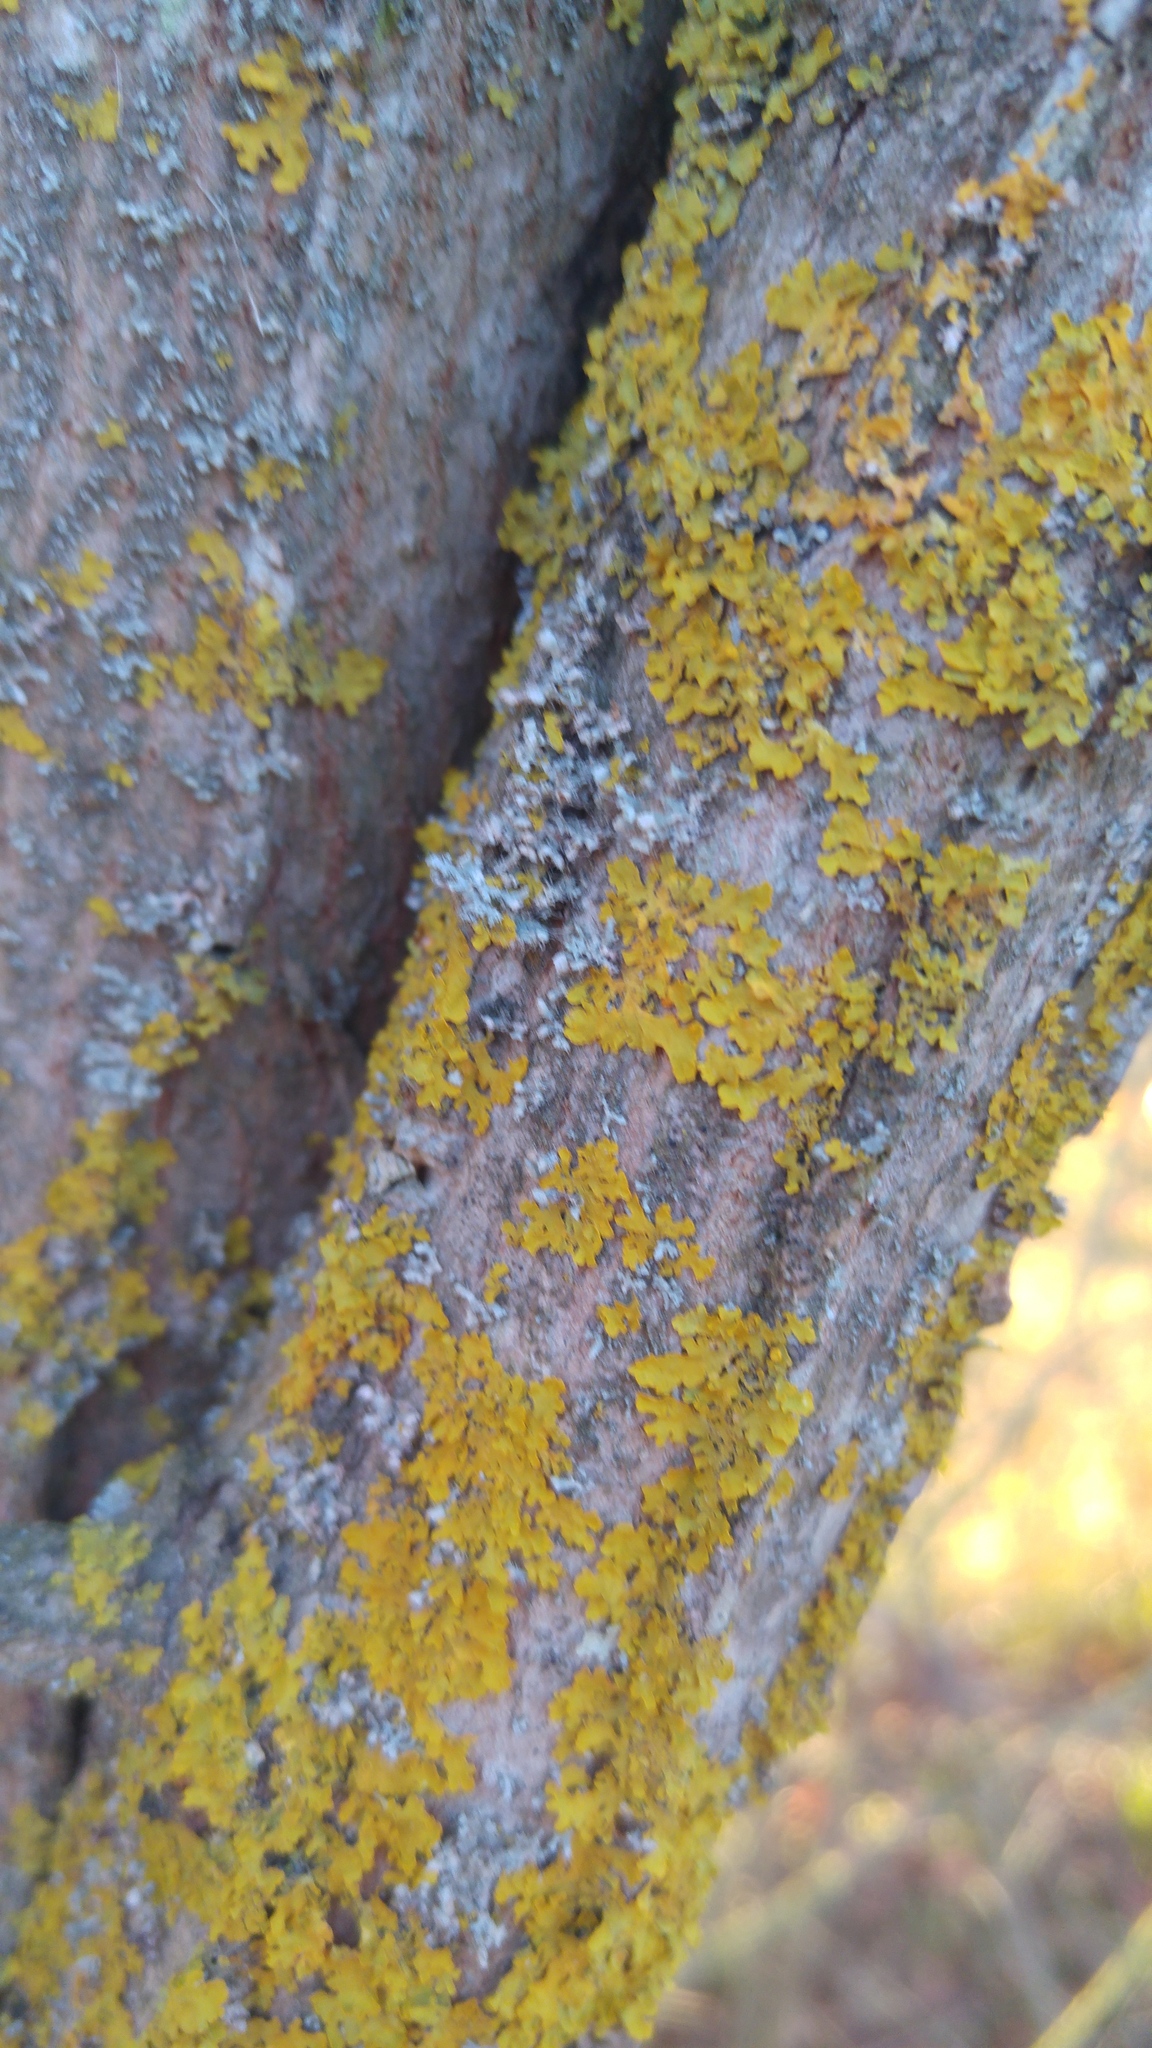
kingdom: Fungi
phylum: Ascomycota
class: Lecanoromycetes
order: Teloschistales
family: Teloschistaceae
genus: Xanthoria
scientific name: Xanthoria parietina
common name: Common orange lichen
